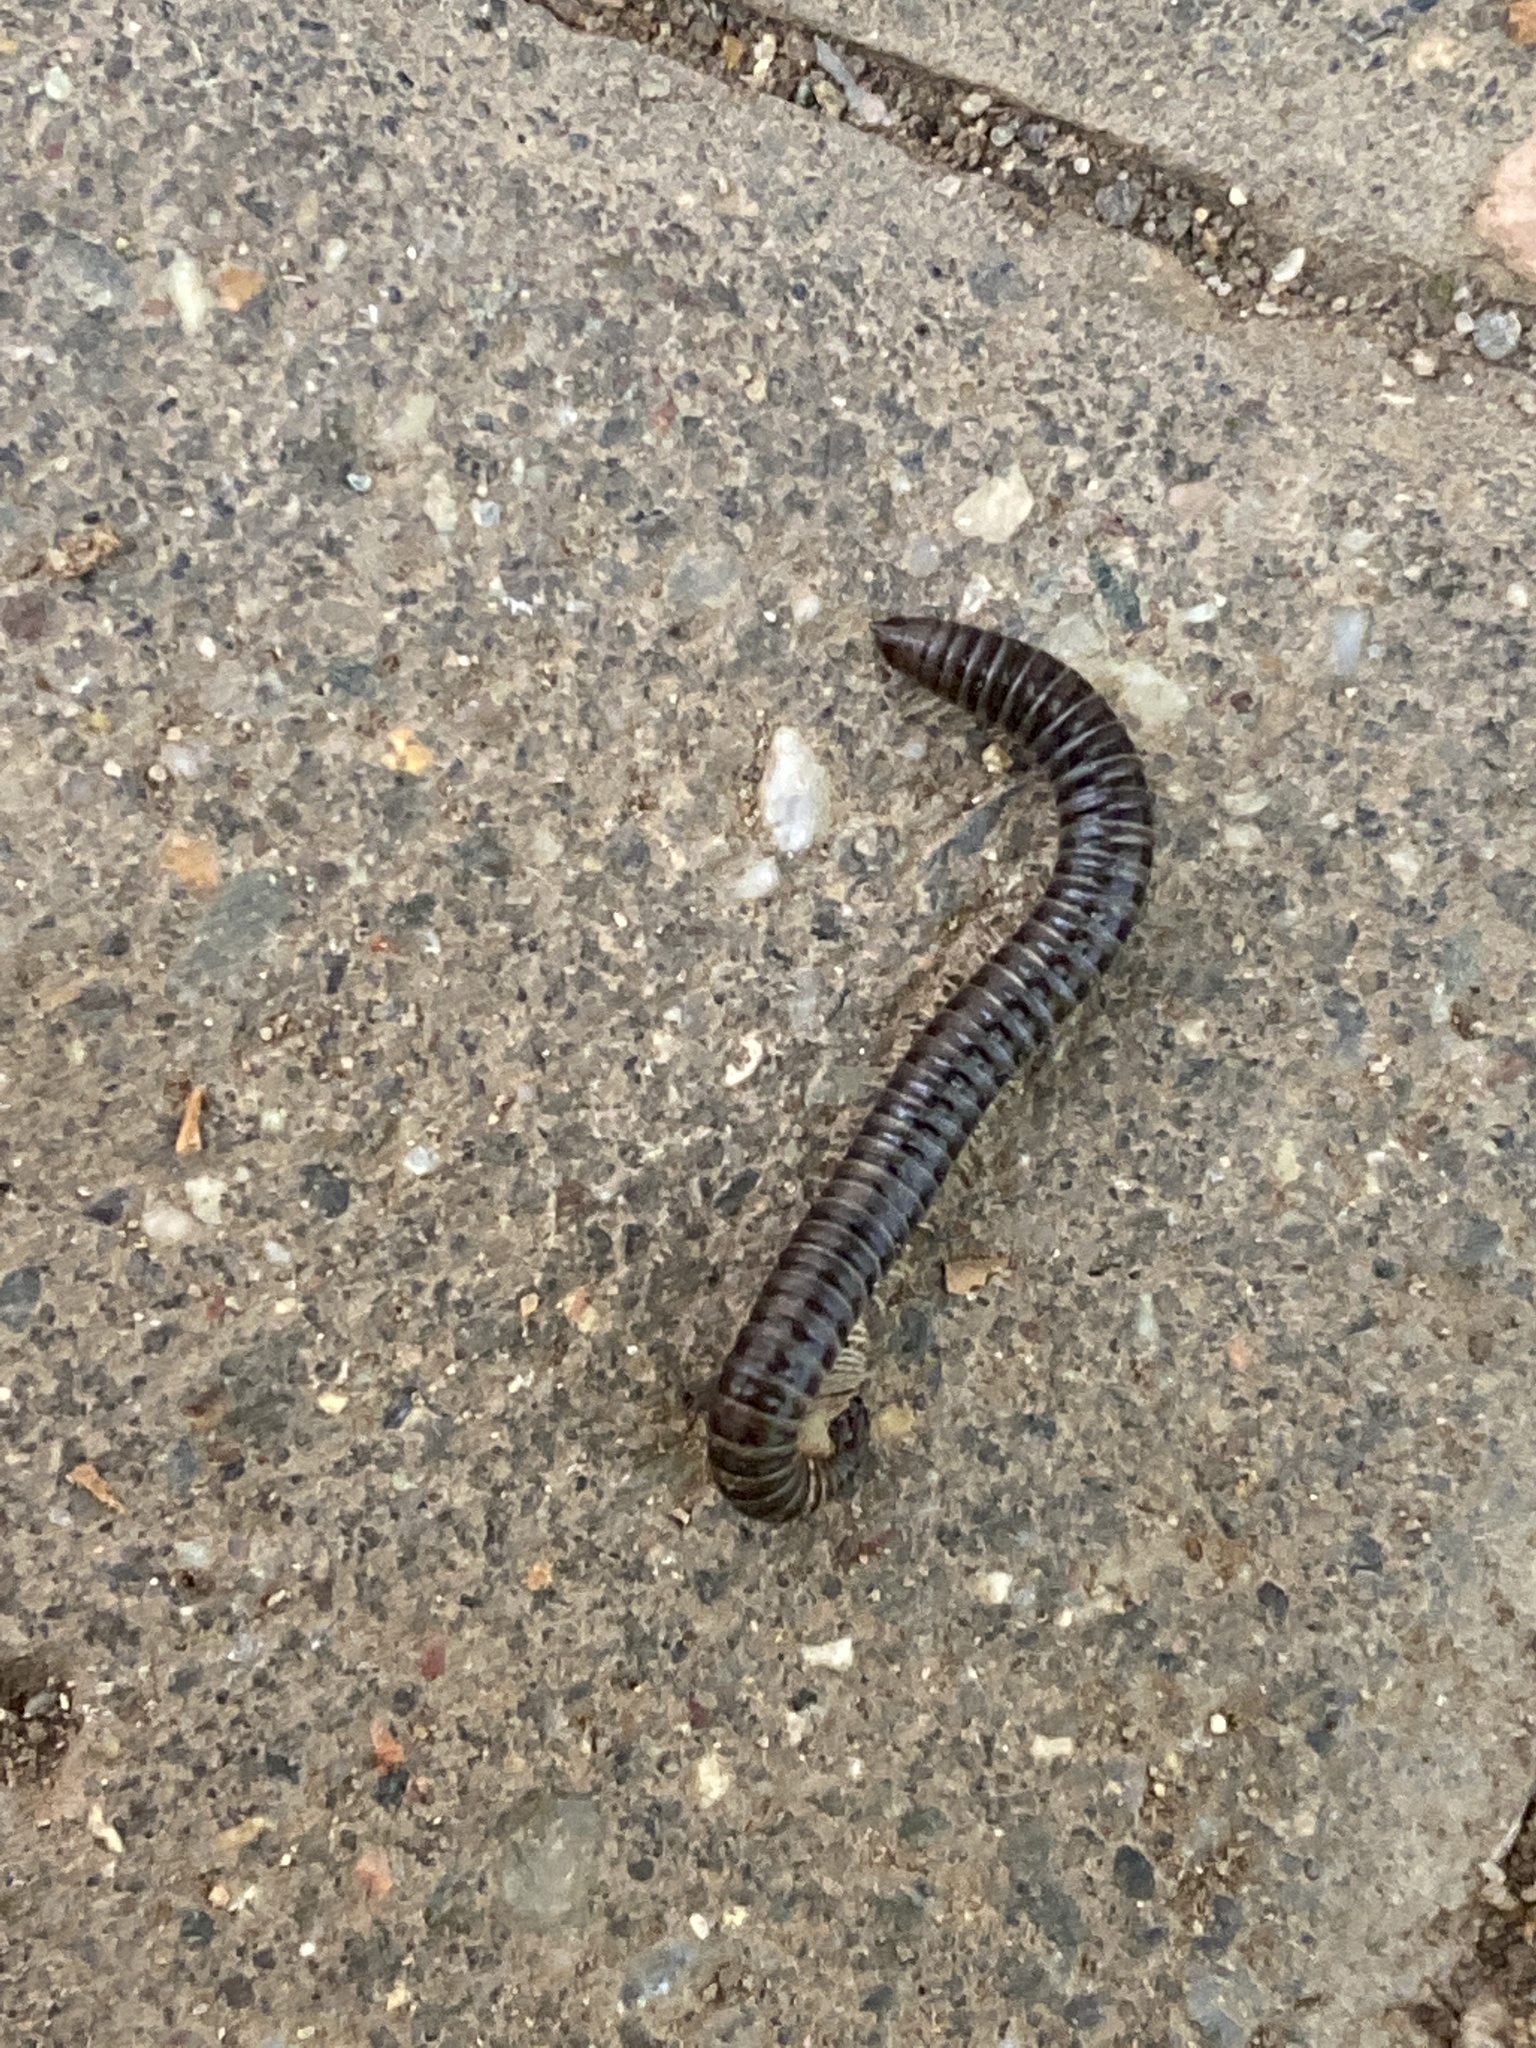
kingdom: Animalia
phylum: Arthropoda
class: Diplopoda
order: Julida
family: Julidae
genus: Tachypodoiulus
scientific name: Tachypodoiulus niger
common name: White-legged snake millipede
